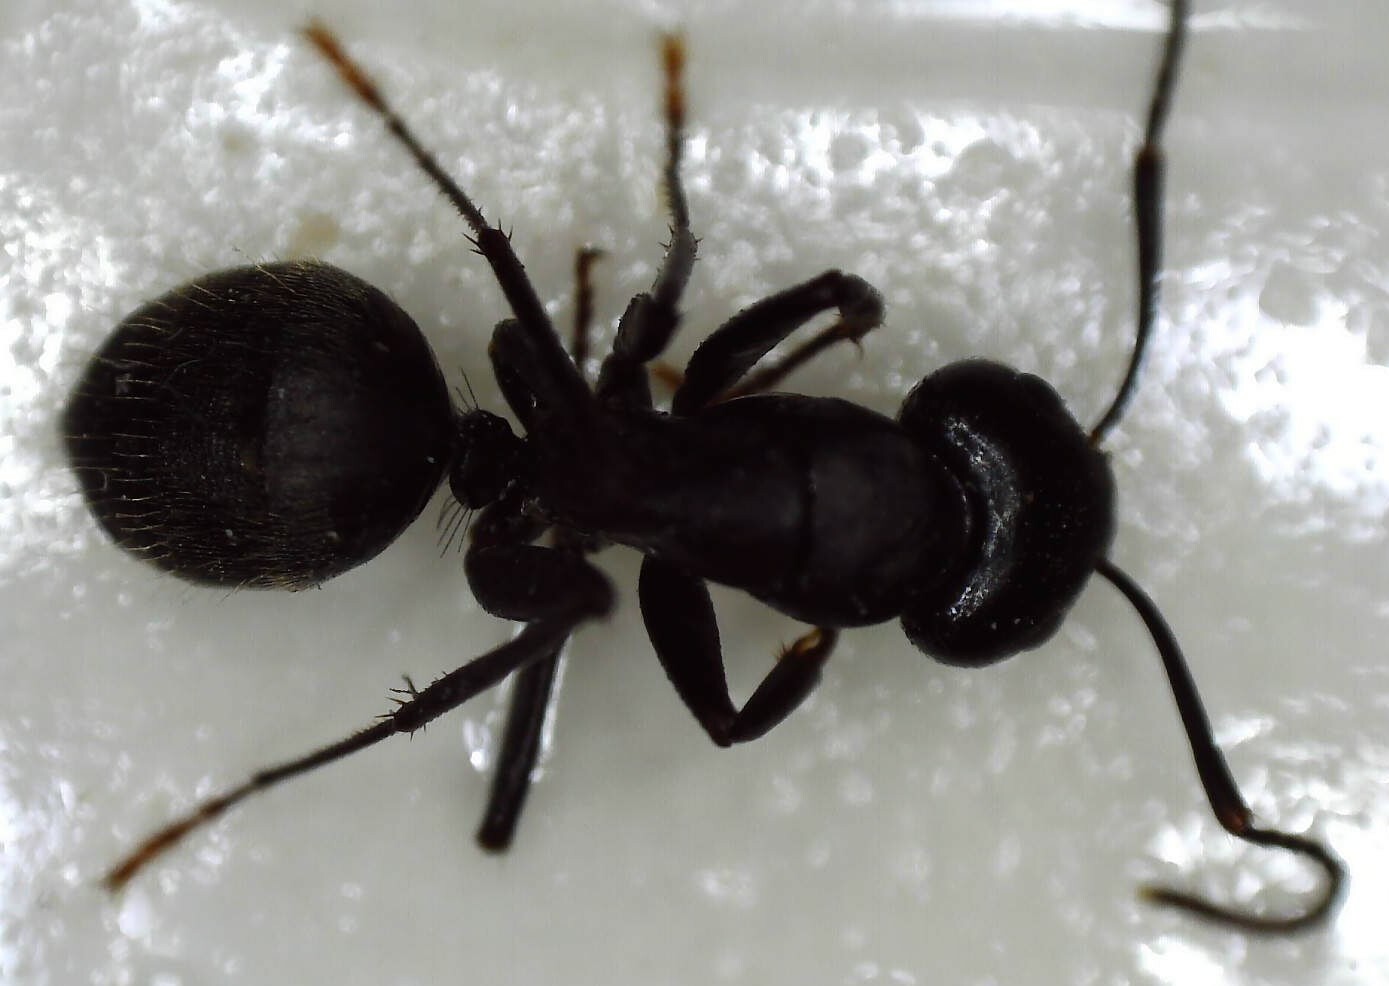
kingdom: Animalia
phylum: Arthropoda
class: Insecta
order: Hymenoptera
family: Formicidae
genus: Camponotus
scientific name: Camponotus pennsylvanicus
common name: Black carpenter ant
